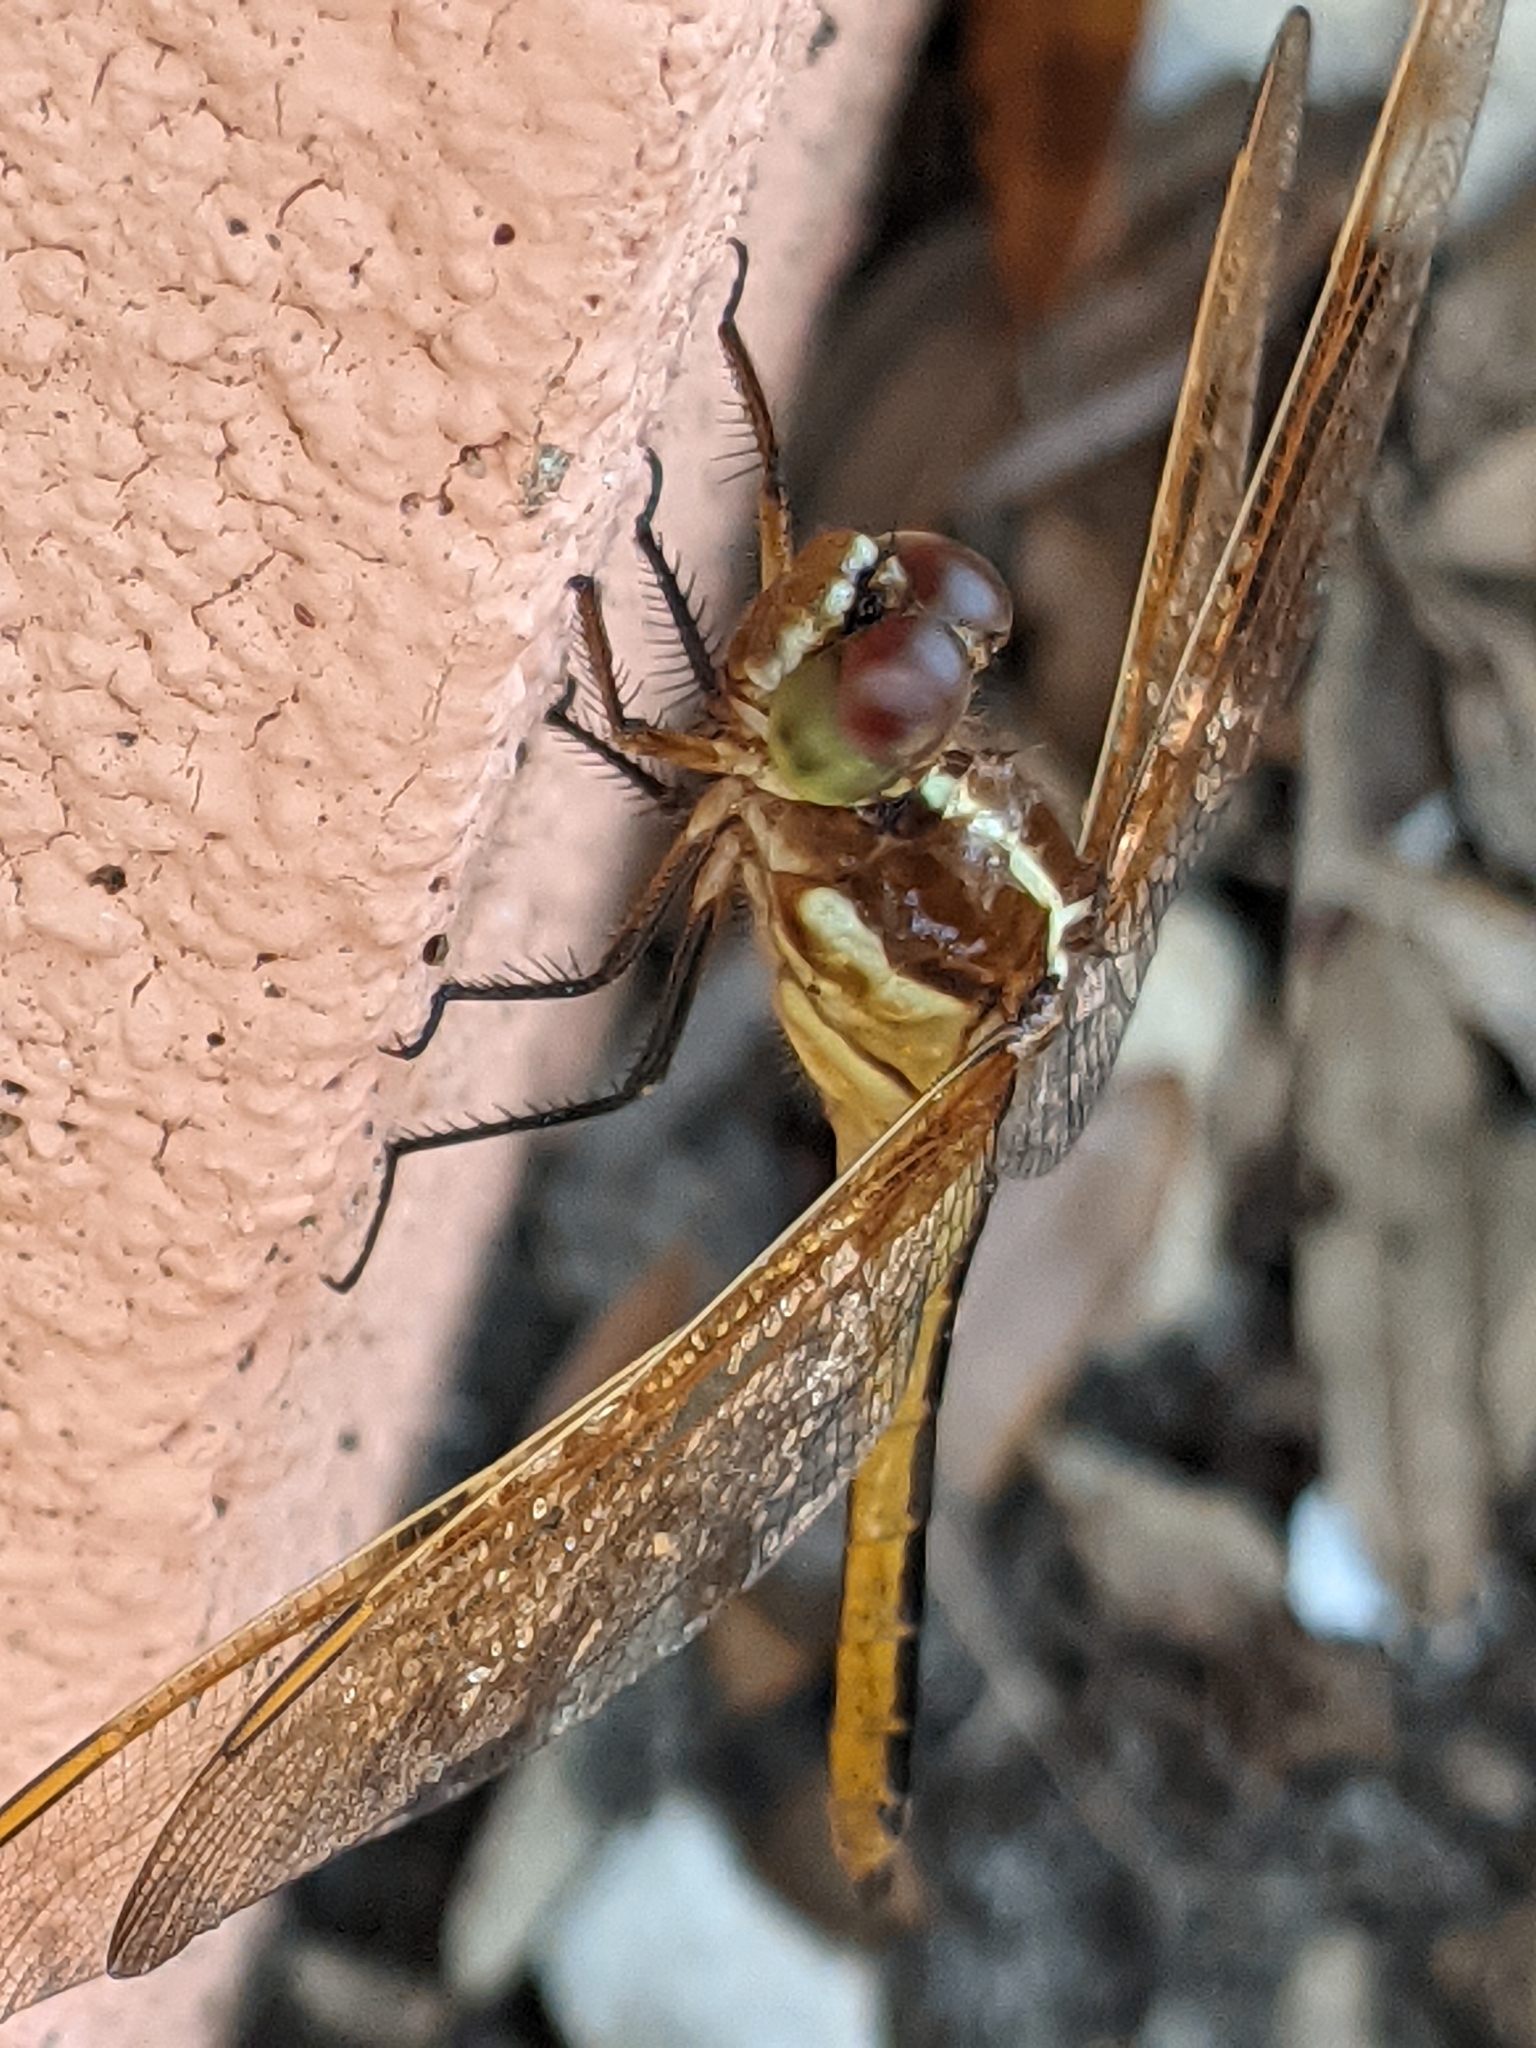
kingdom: Animalia
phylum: Arthropoda
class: Insecta
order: Odonata
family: Libellulidae
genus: Libellula
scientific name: Libellula auripennis
